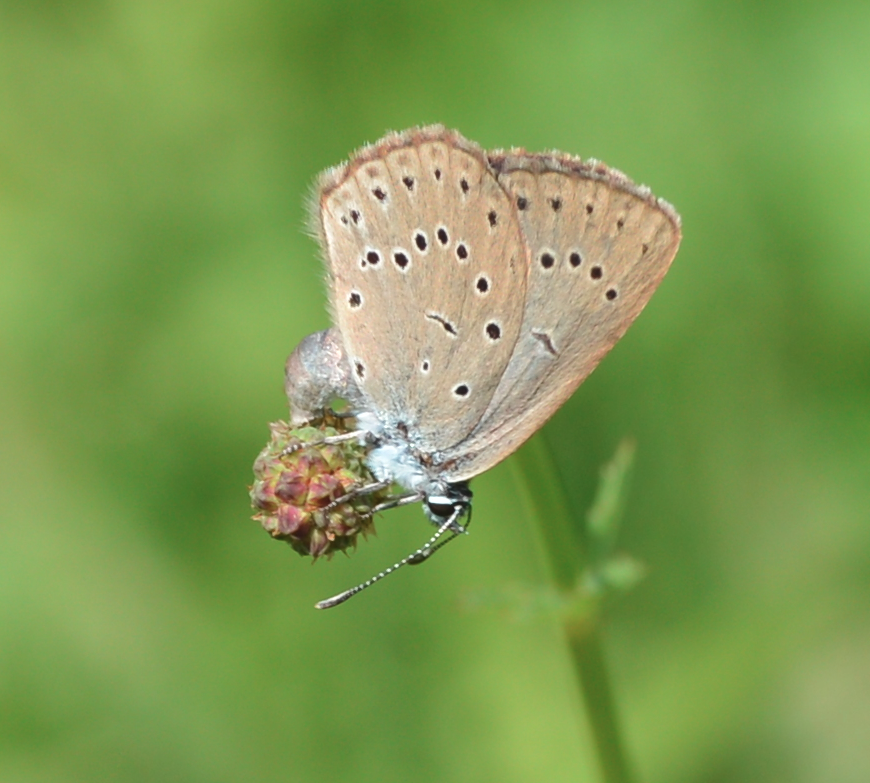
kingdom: Animalia
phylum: Arthropoda
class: Insecta
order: Lepidoptera
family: Lycaenidae
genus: Phengaris
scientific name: Phengaris teleius
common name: Scarce large blue
